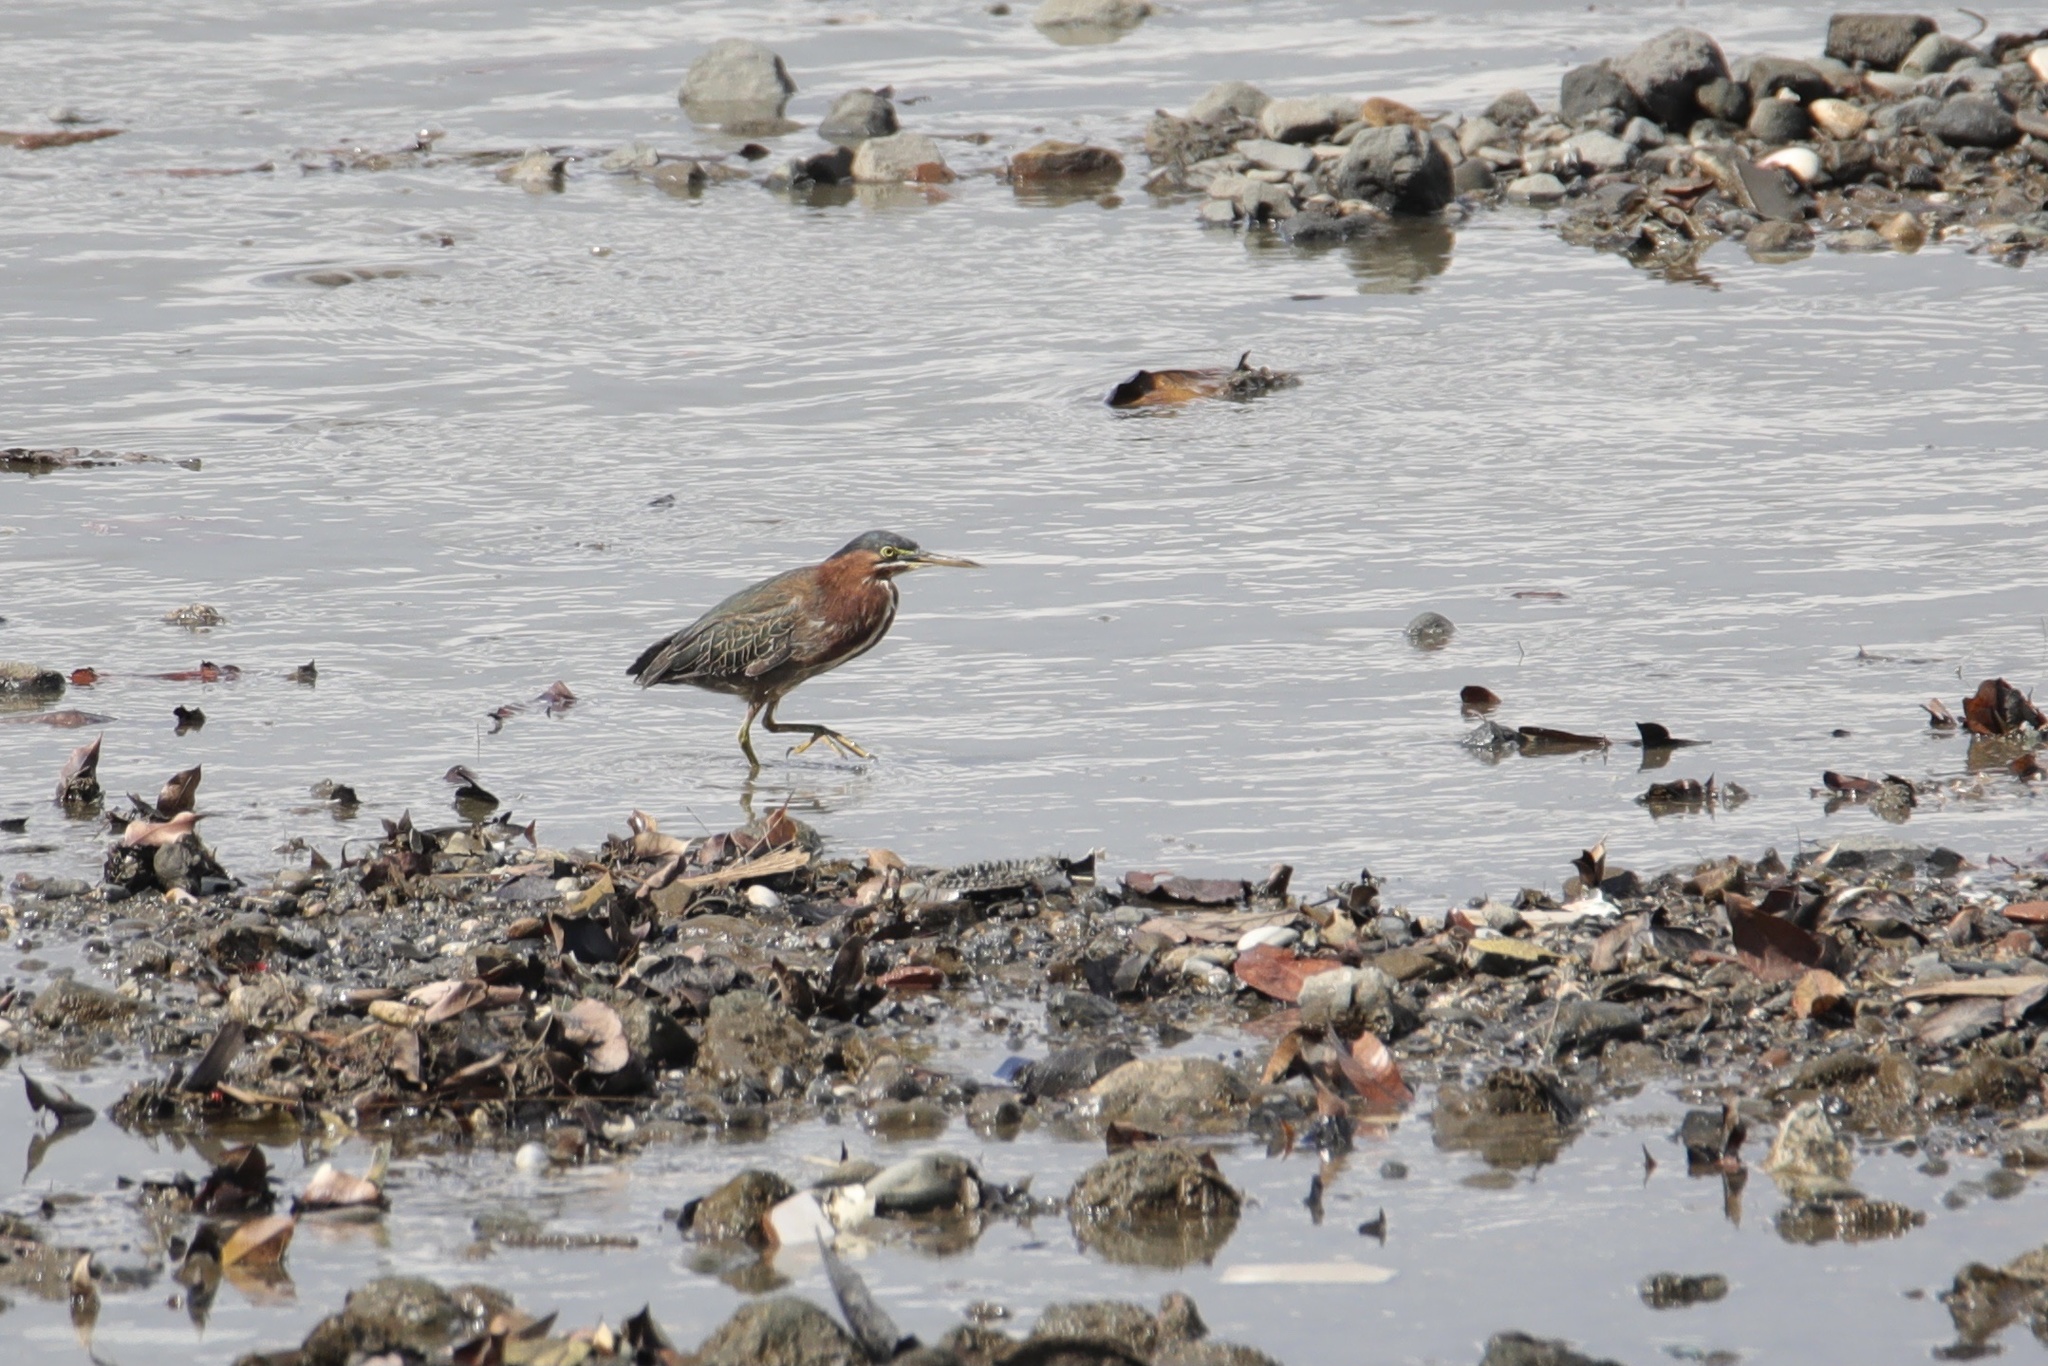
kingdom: Animalia
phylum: Chordata
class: Aves
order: Pelecaniformes
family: Ardeidae
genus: Butorides
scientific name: Butorides virescens
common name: Green heron
